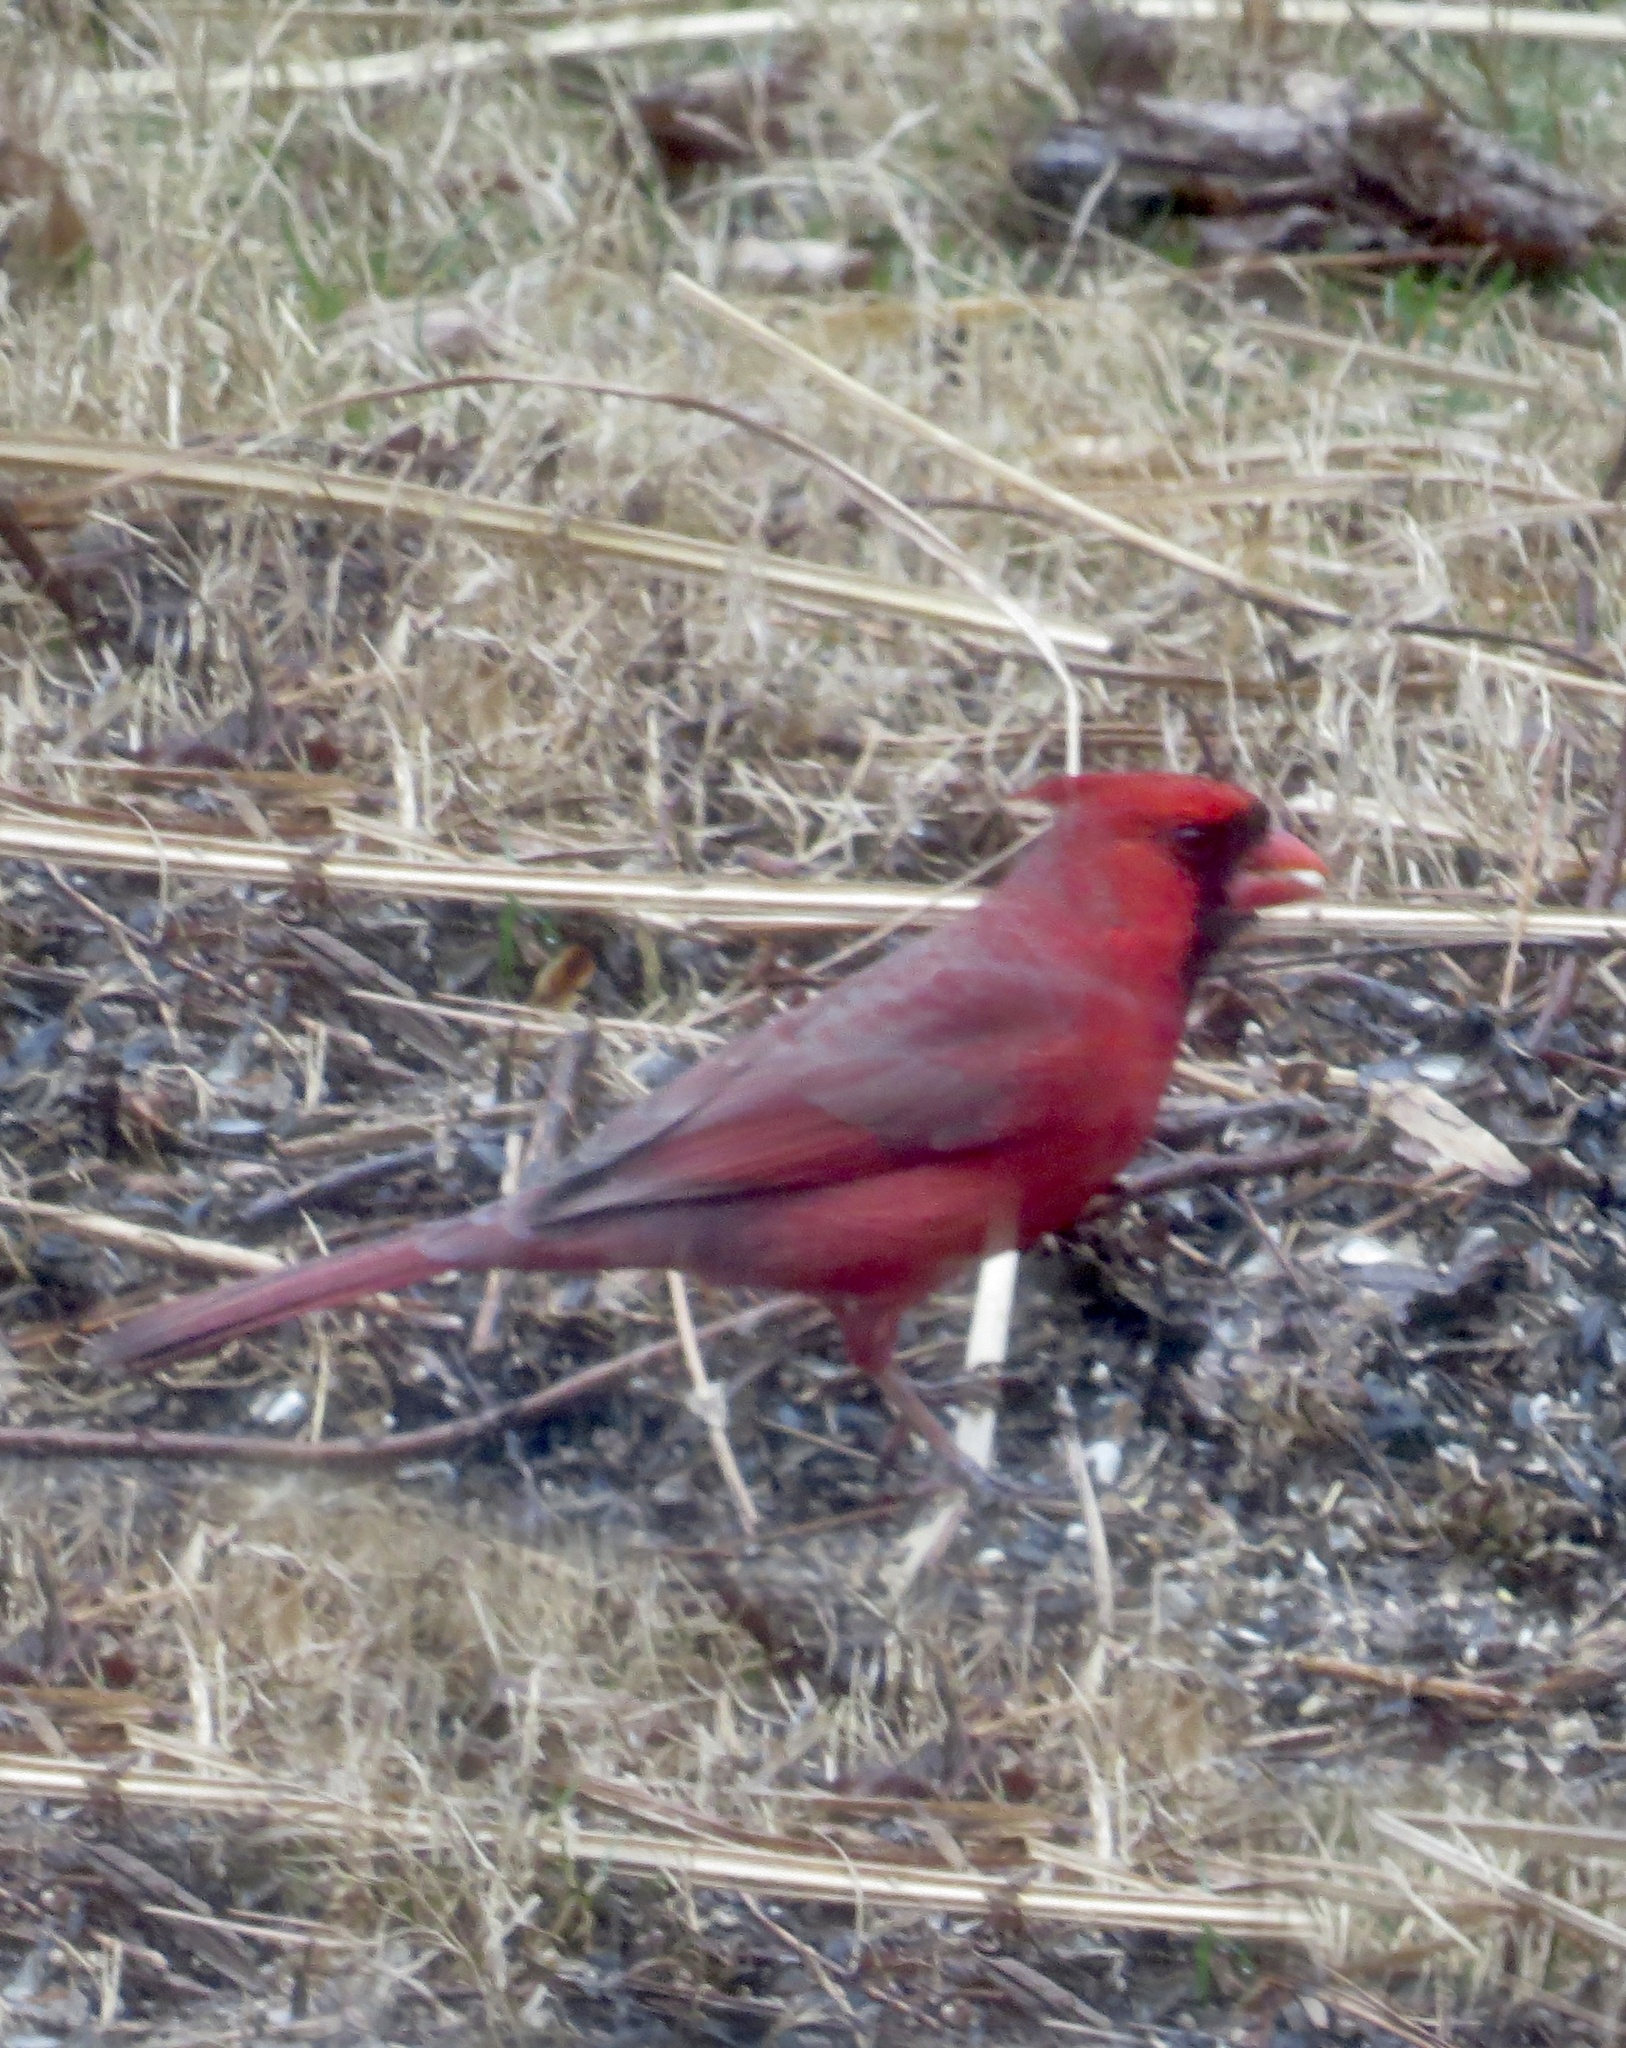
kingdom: Animalia
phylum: Chordata
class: Aves
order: Passeriformes
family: Cardinalidae
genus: Cardinalis
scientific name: Cardinalis cardinalis
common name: Northern cardinal
